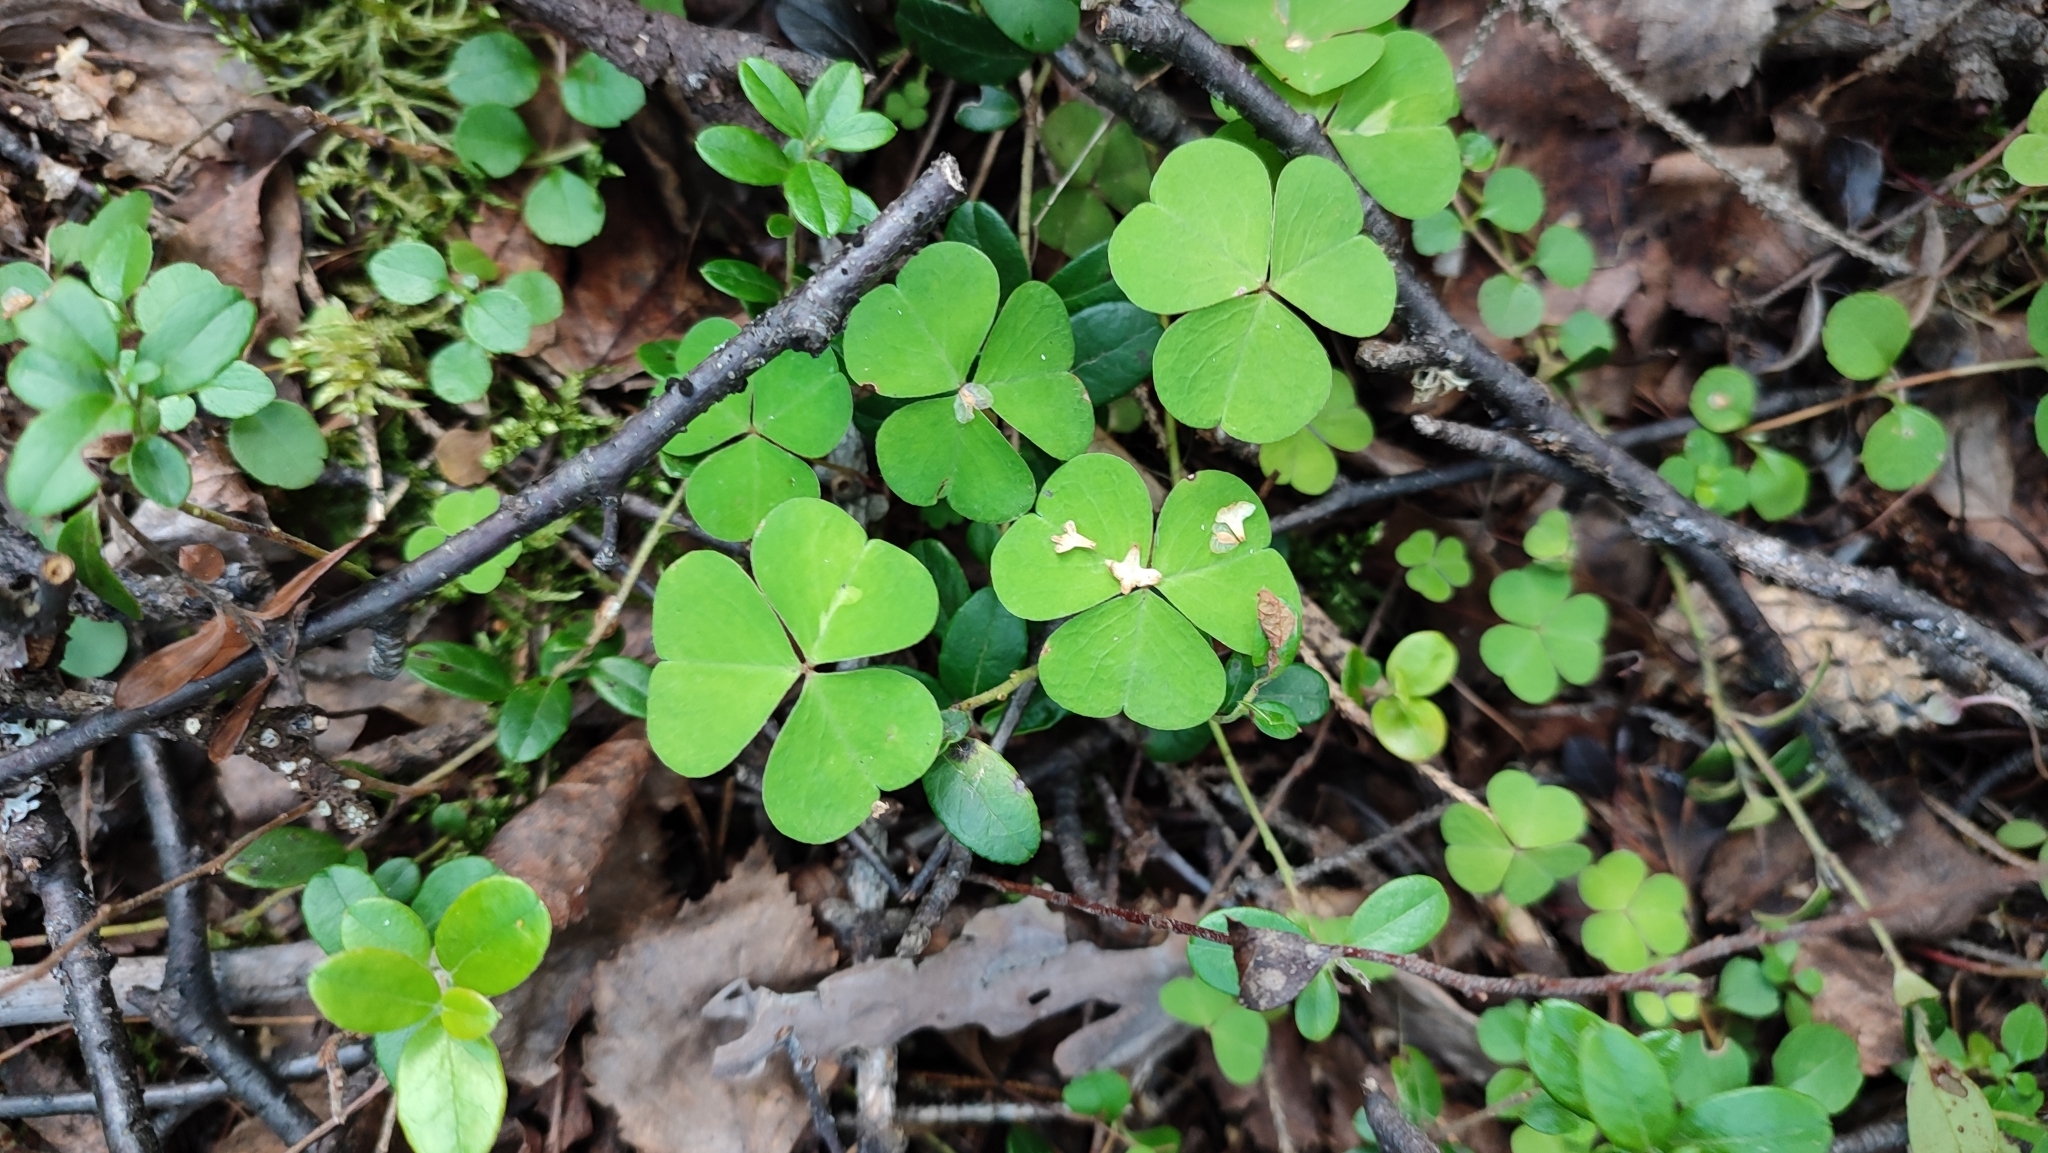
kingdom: Plantae
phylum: Tracheophyta
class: Magnoliopsida
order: Oxalidales
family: Oxalidaceae
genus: Oxalis
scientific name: Oxalis acetosella
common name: Wood-sorrel
